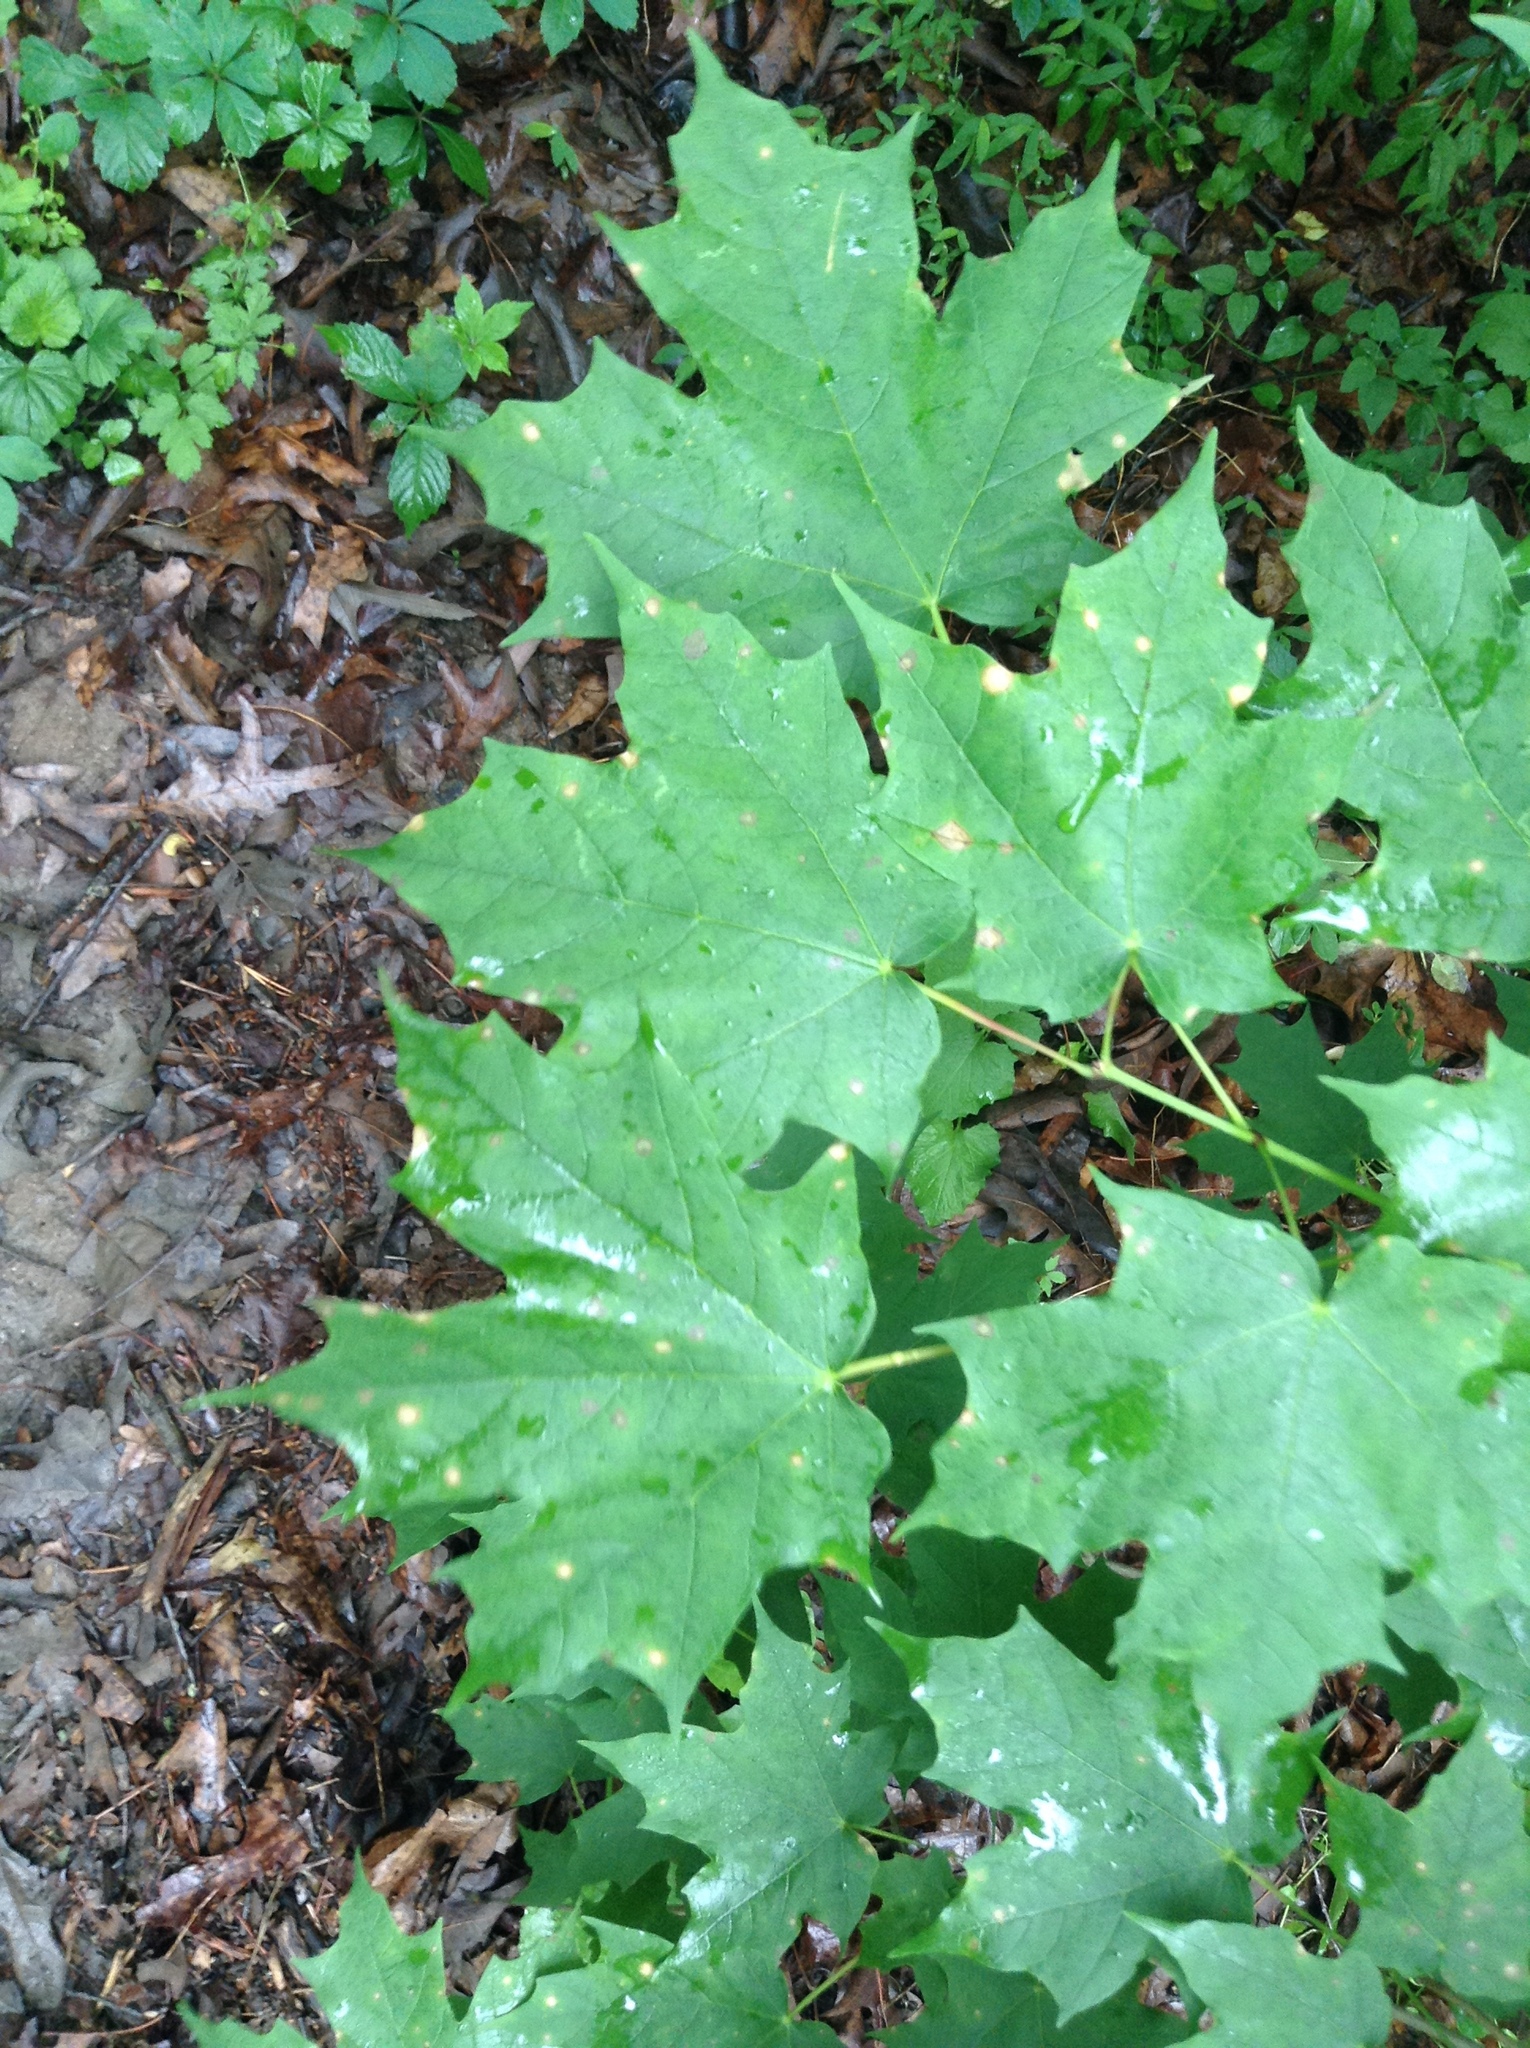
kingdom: Plantae
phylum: Tracheophyta
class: Magnoliopsida
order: Sapindales
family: Sapindaceae
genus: Acer
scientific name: Acer saccharum
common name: Sugar maple
